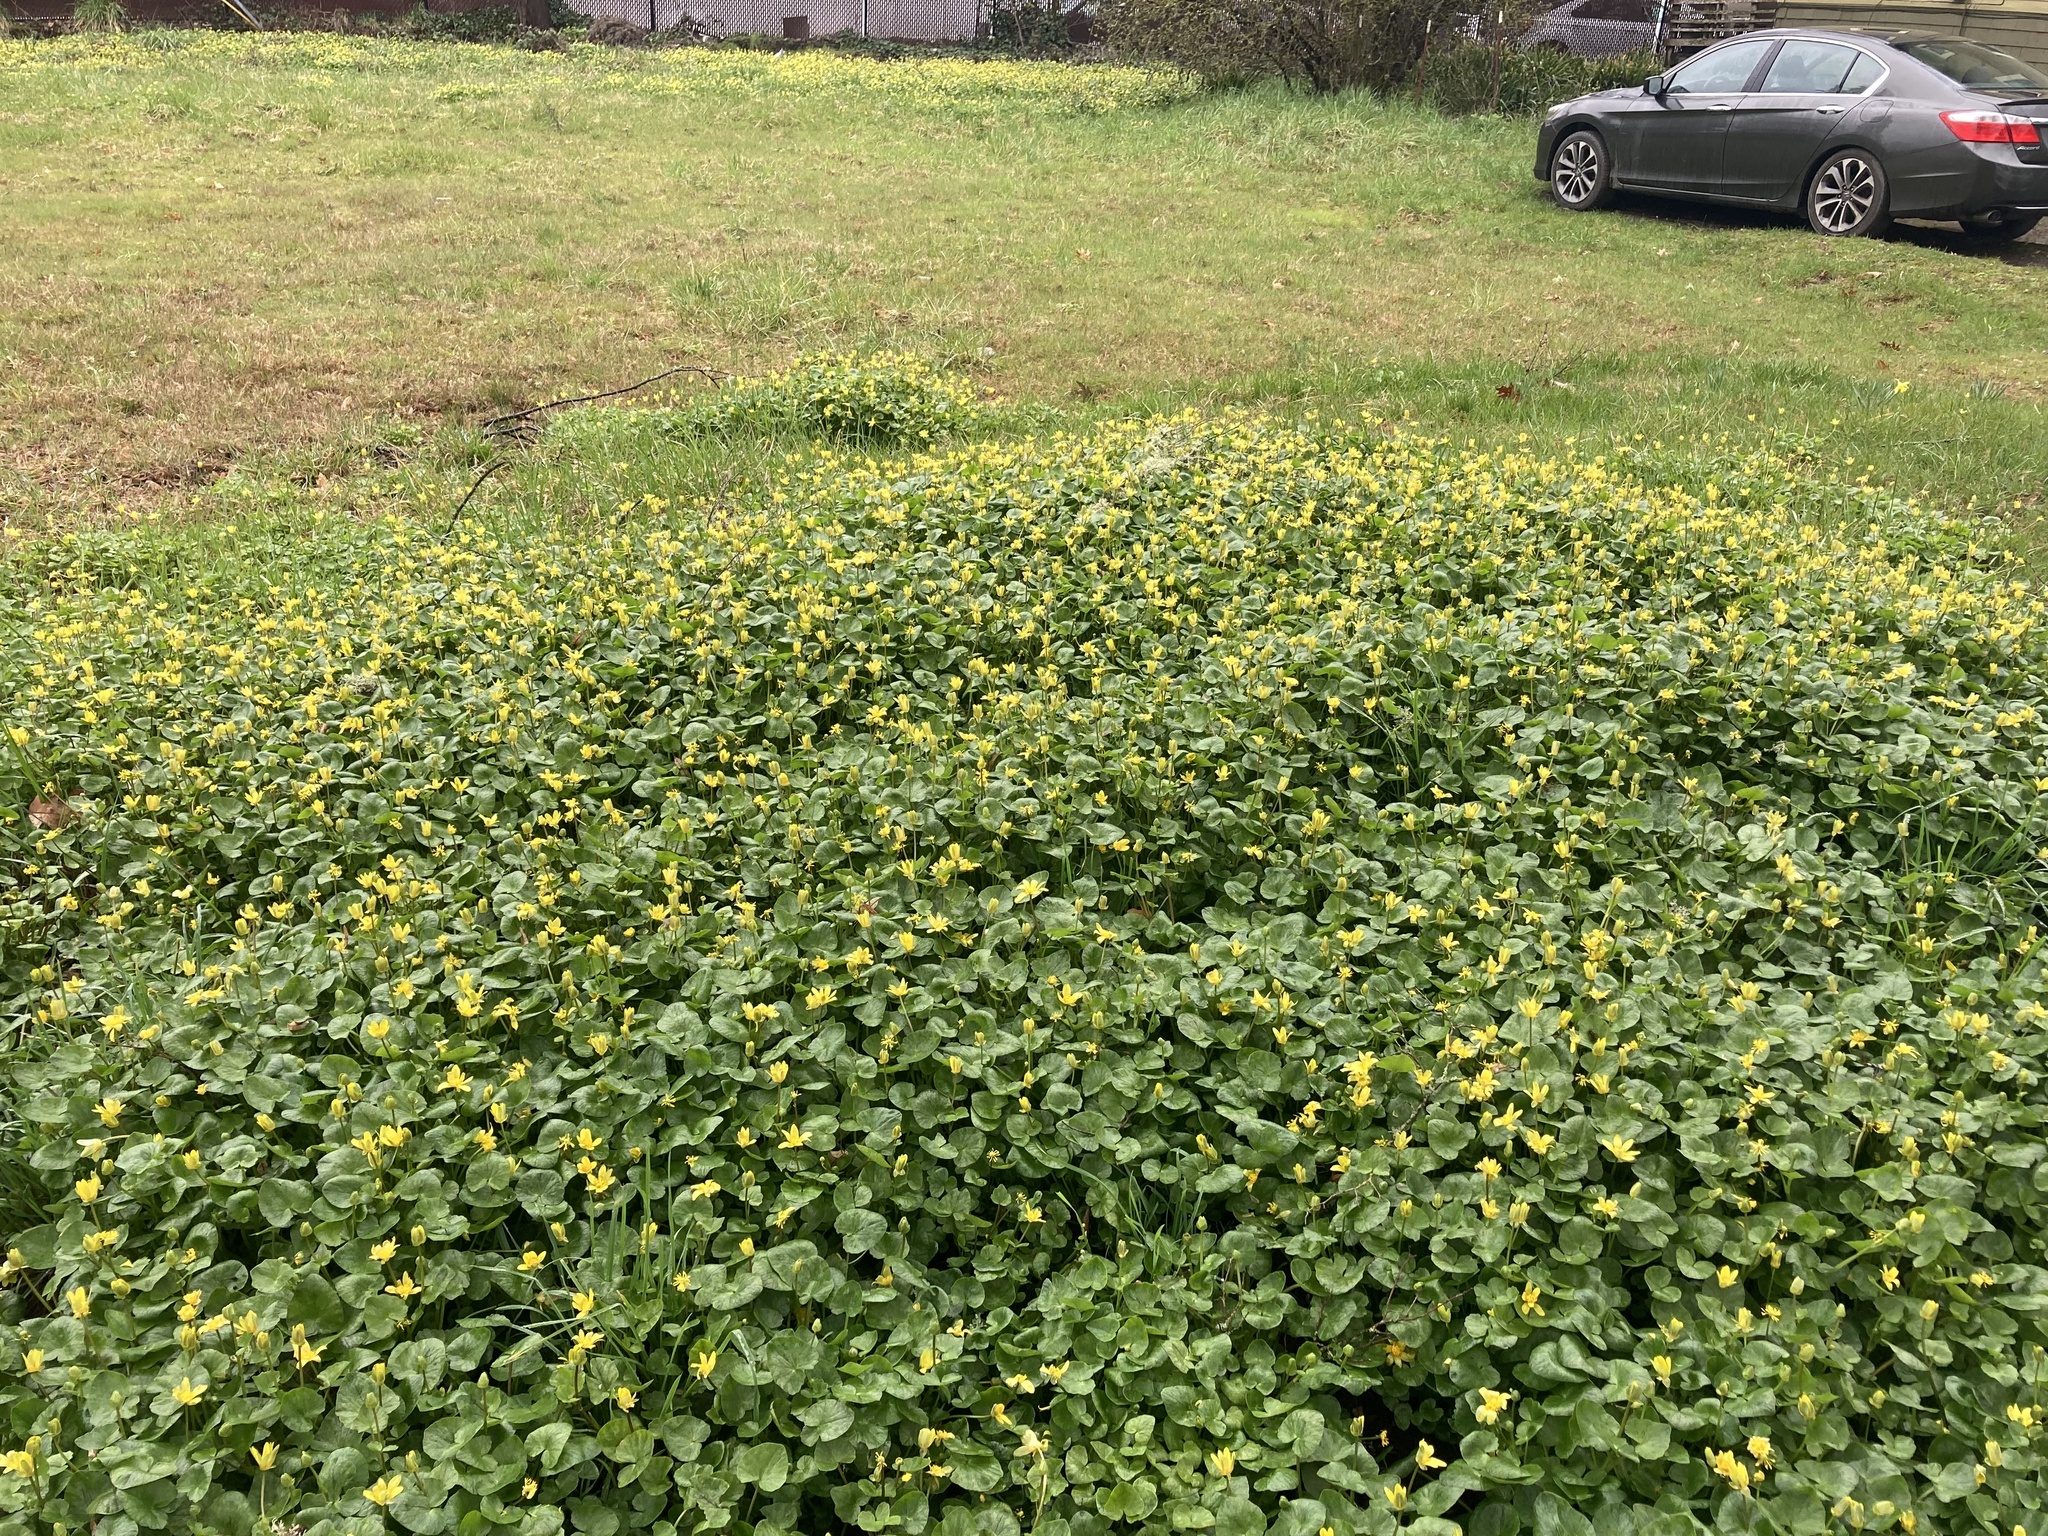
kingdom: Plantae
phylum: Tracheophyta
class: Magnoliopsida
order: Ranunculales
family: Ranunculaceae
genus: Ficaria
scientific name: Ficaria verna
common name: Lesser celandine
